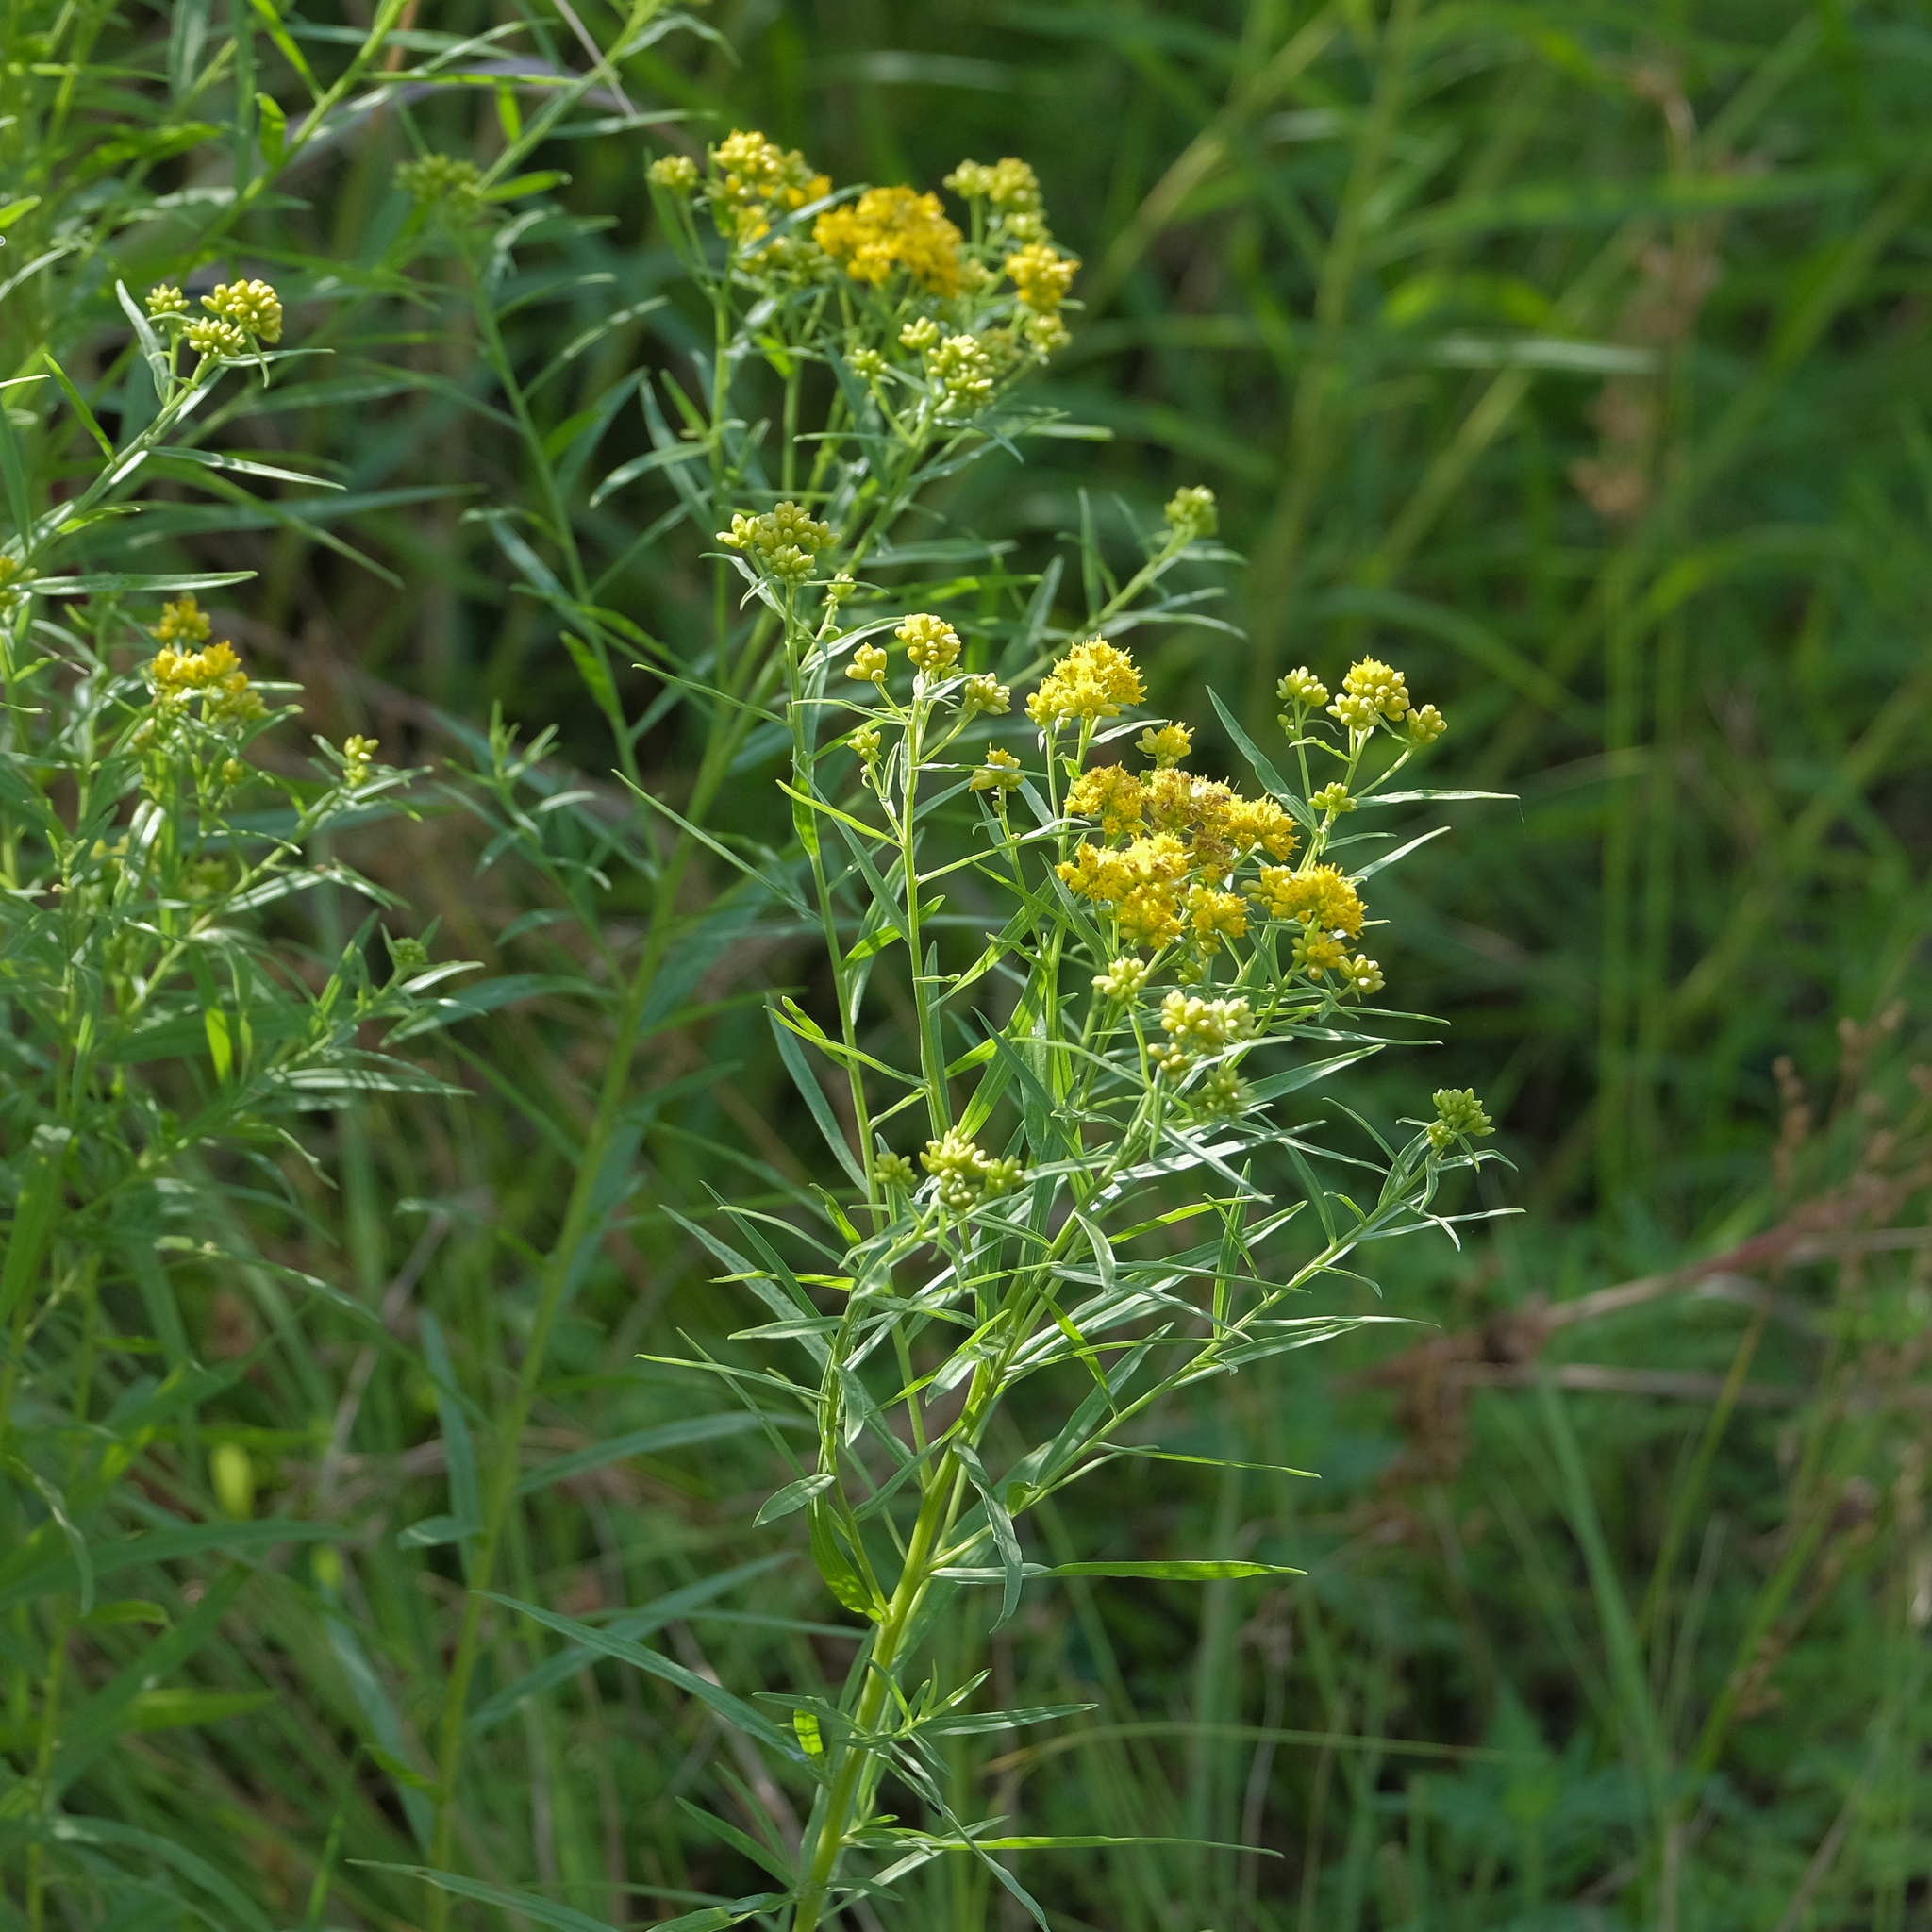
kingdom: Plantae
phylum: Tracheophyta
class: Magnoliopsida
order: Asterales
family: Asteraceae
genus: Euthamia
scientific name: Euthamia graminifolia
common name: Common goldentop
